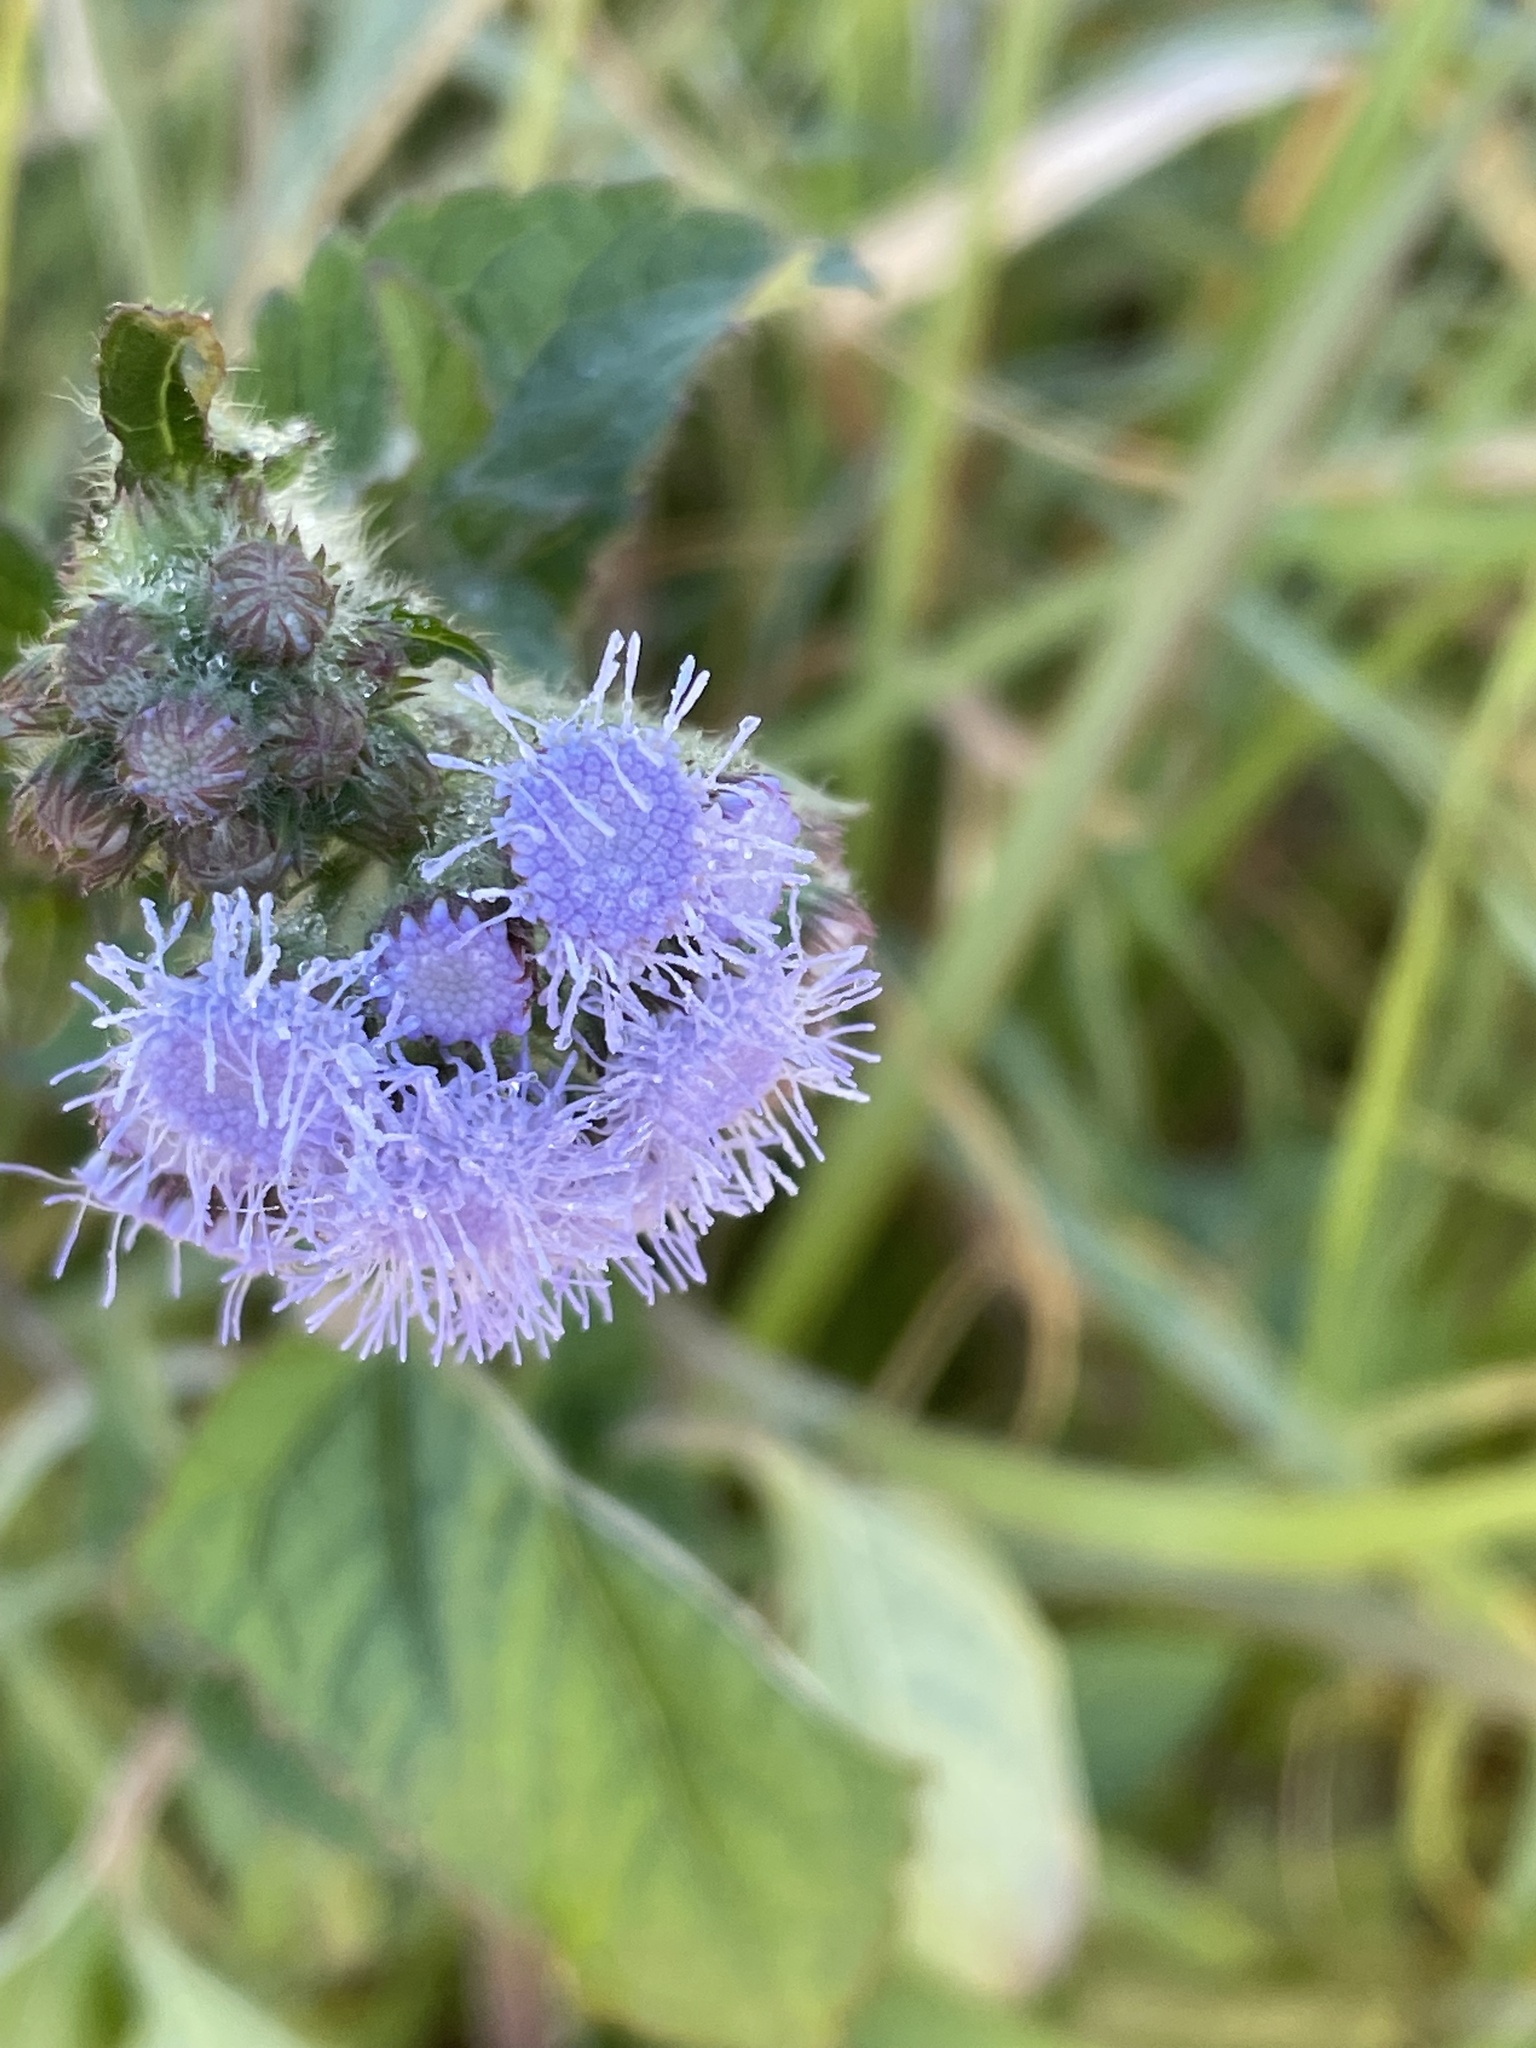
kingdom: Plantae
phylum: Tracheophyta
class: Magnoliopsida
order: Asterales
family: Asteraceae
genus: Ageratum
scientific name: Ageratum houstonianum
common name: Bluemink
